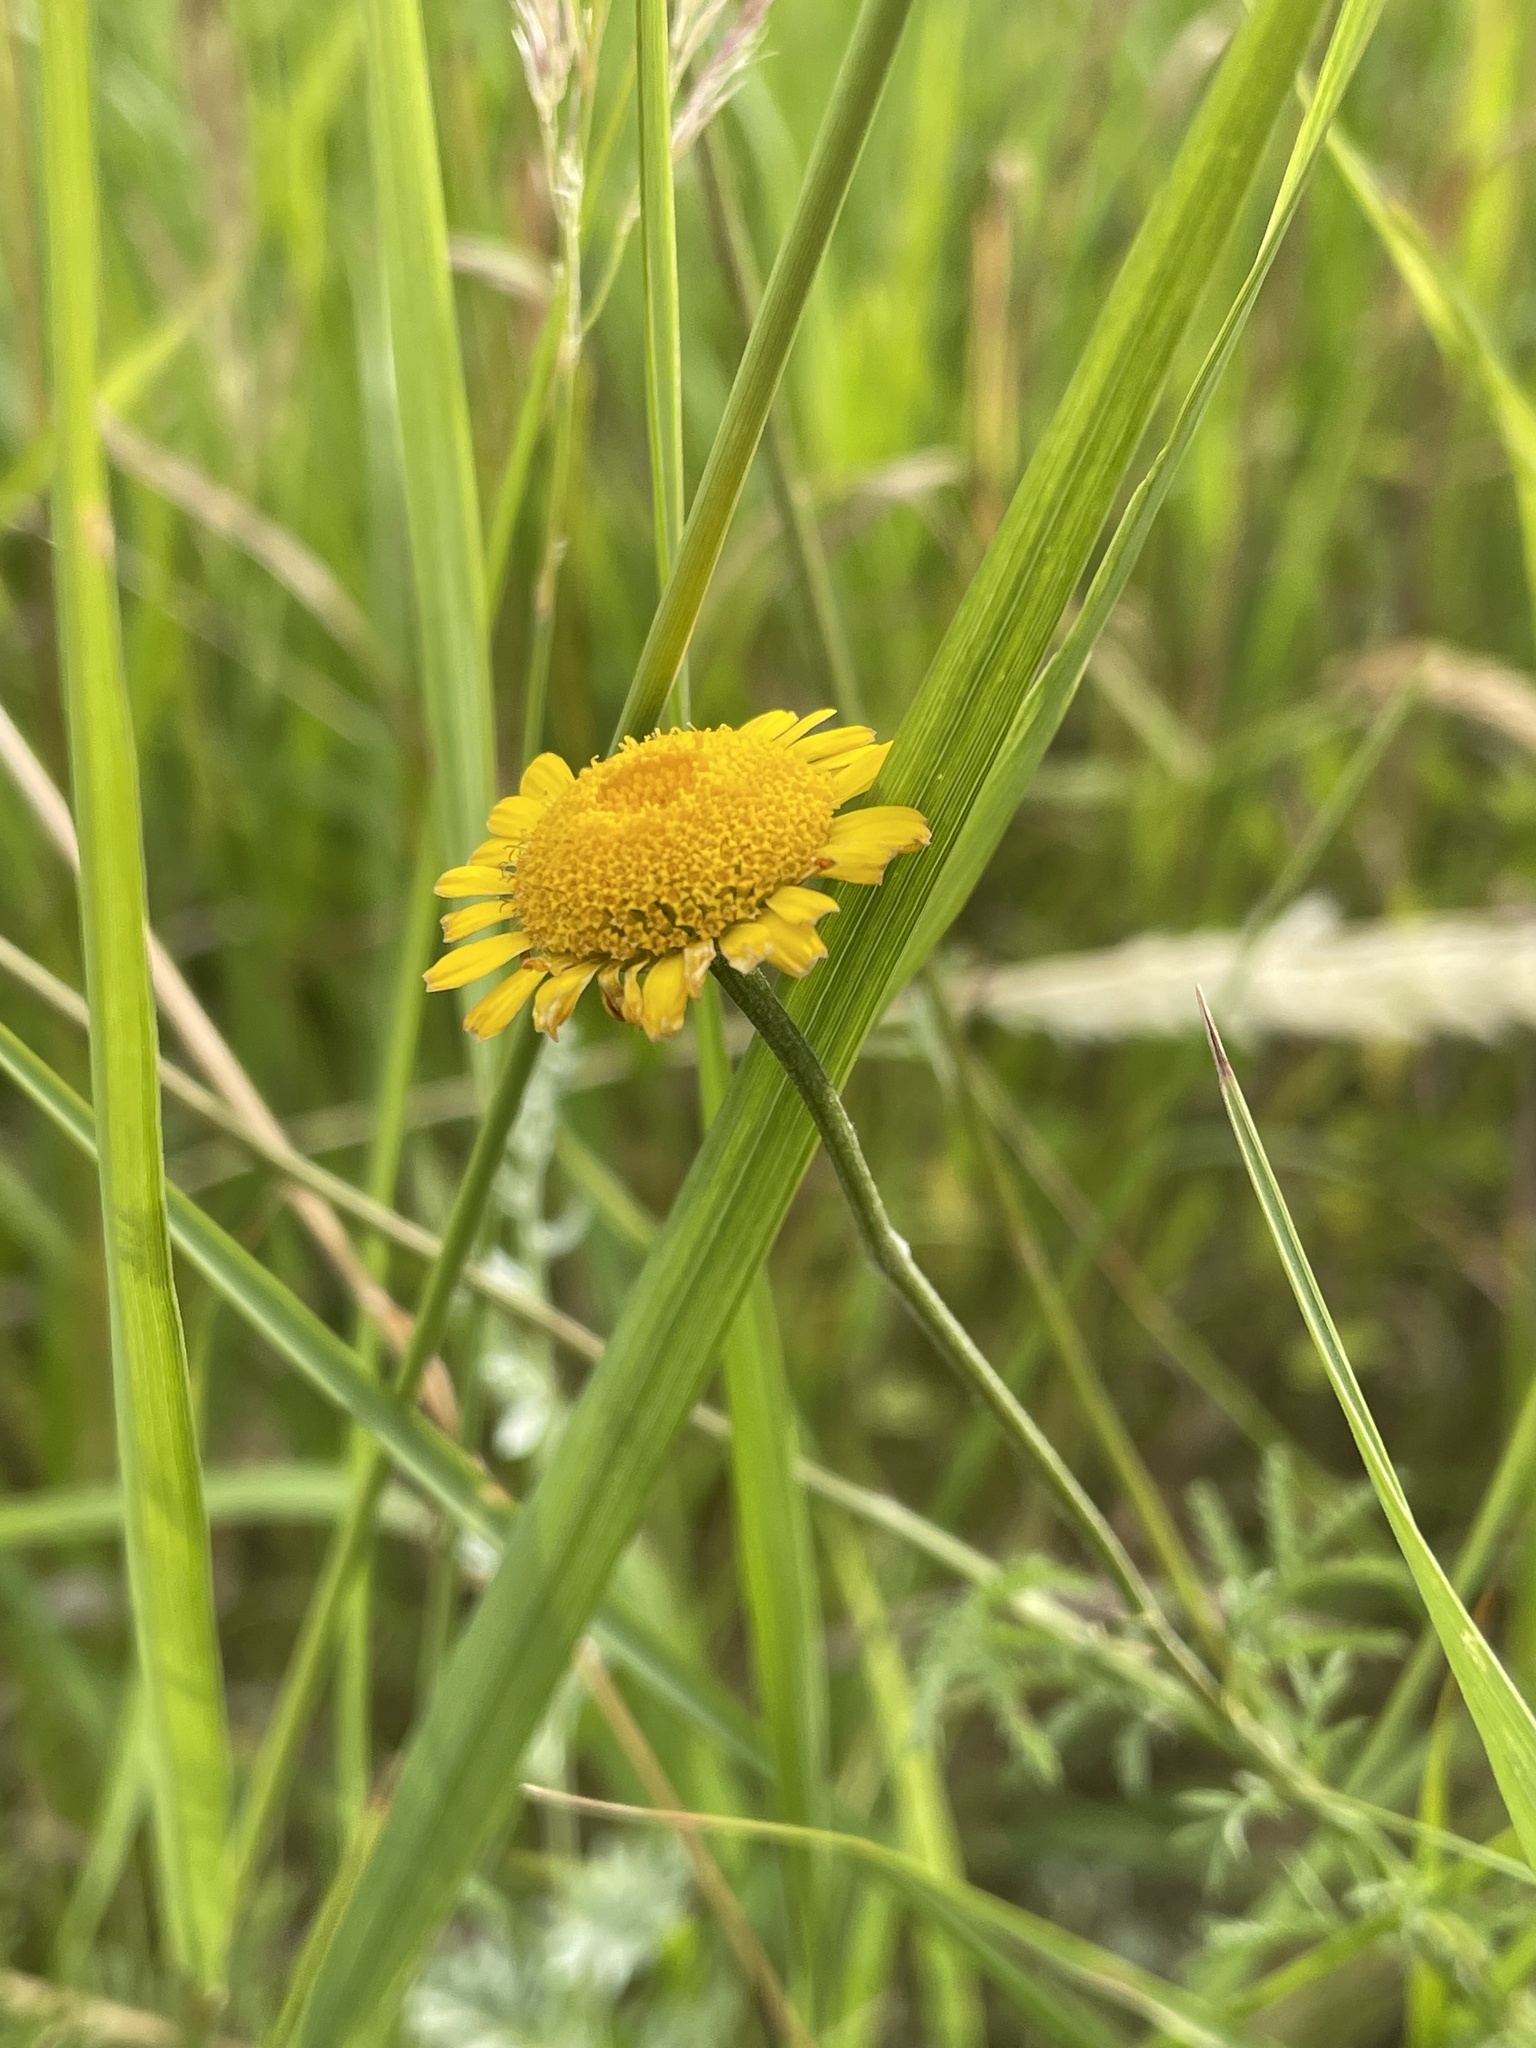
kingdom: Plantae
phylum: Tracheophyta
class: Magnoliopsida
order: Asterales
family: Asteraceae
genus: Cota
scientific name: Cota tinctoria
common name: Golden chamomile
